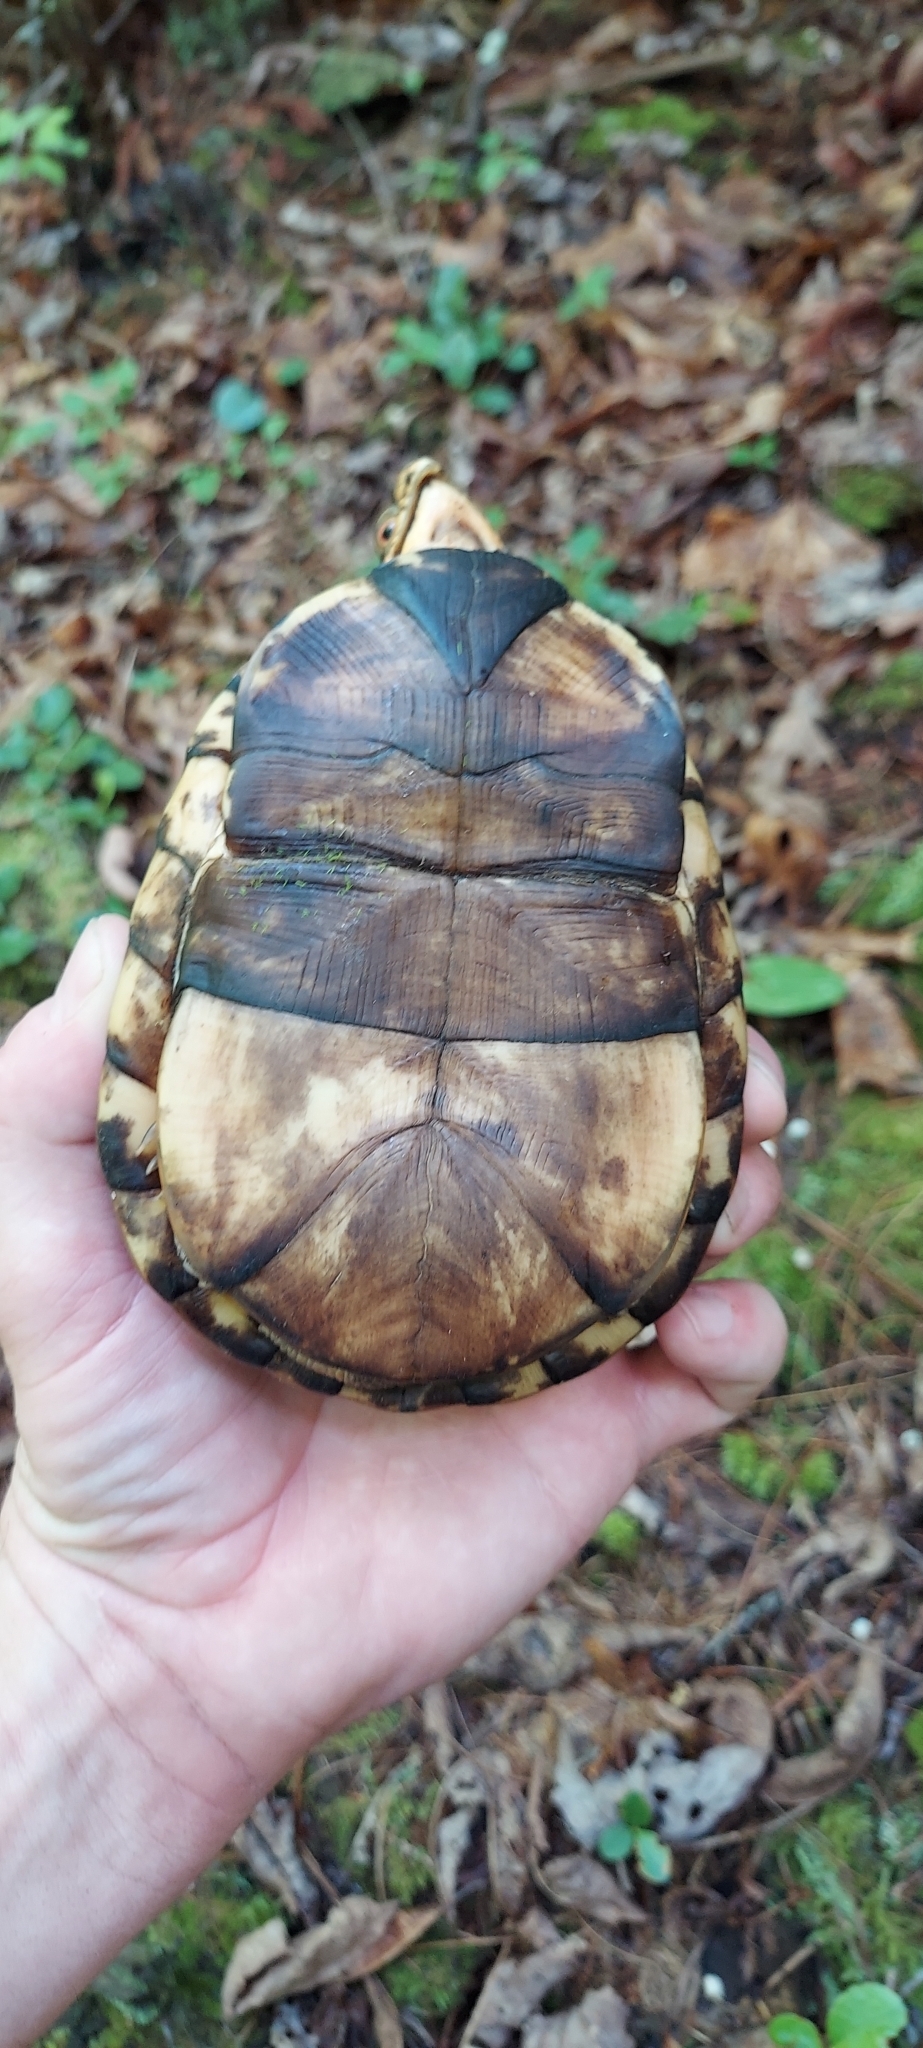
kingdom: Animalia
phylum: Chordata
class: Testudines
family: Emydidae
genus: Terrapene
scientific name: Terrapene carolina
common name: Common box turtle
